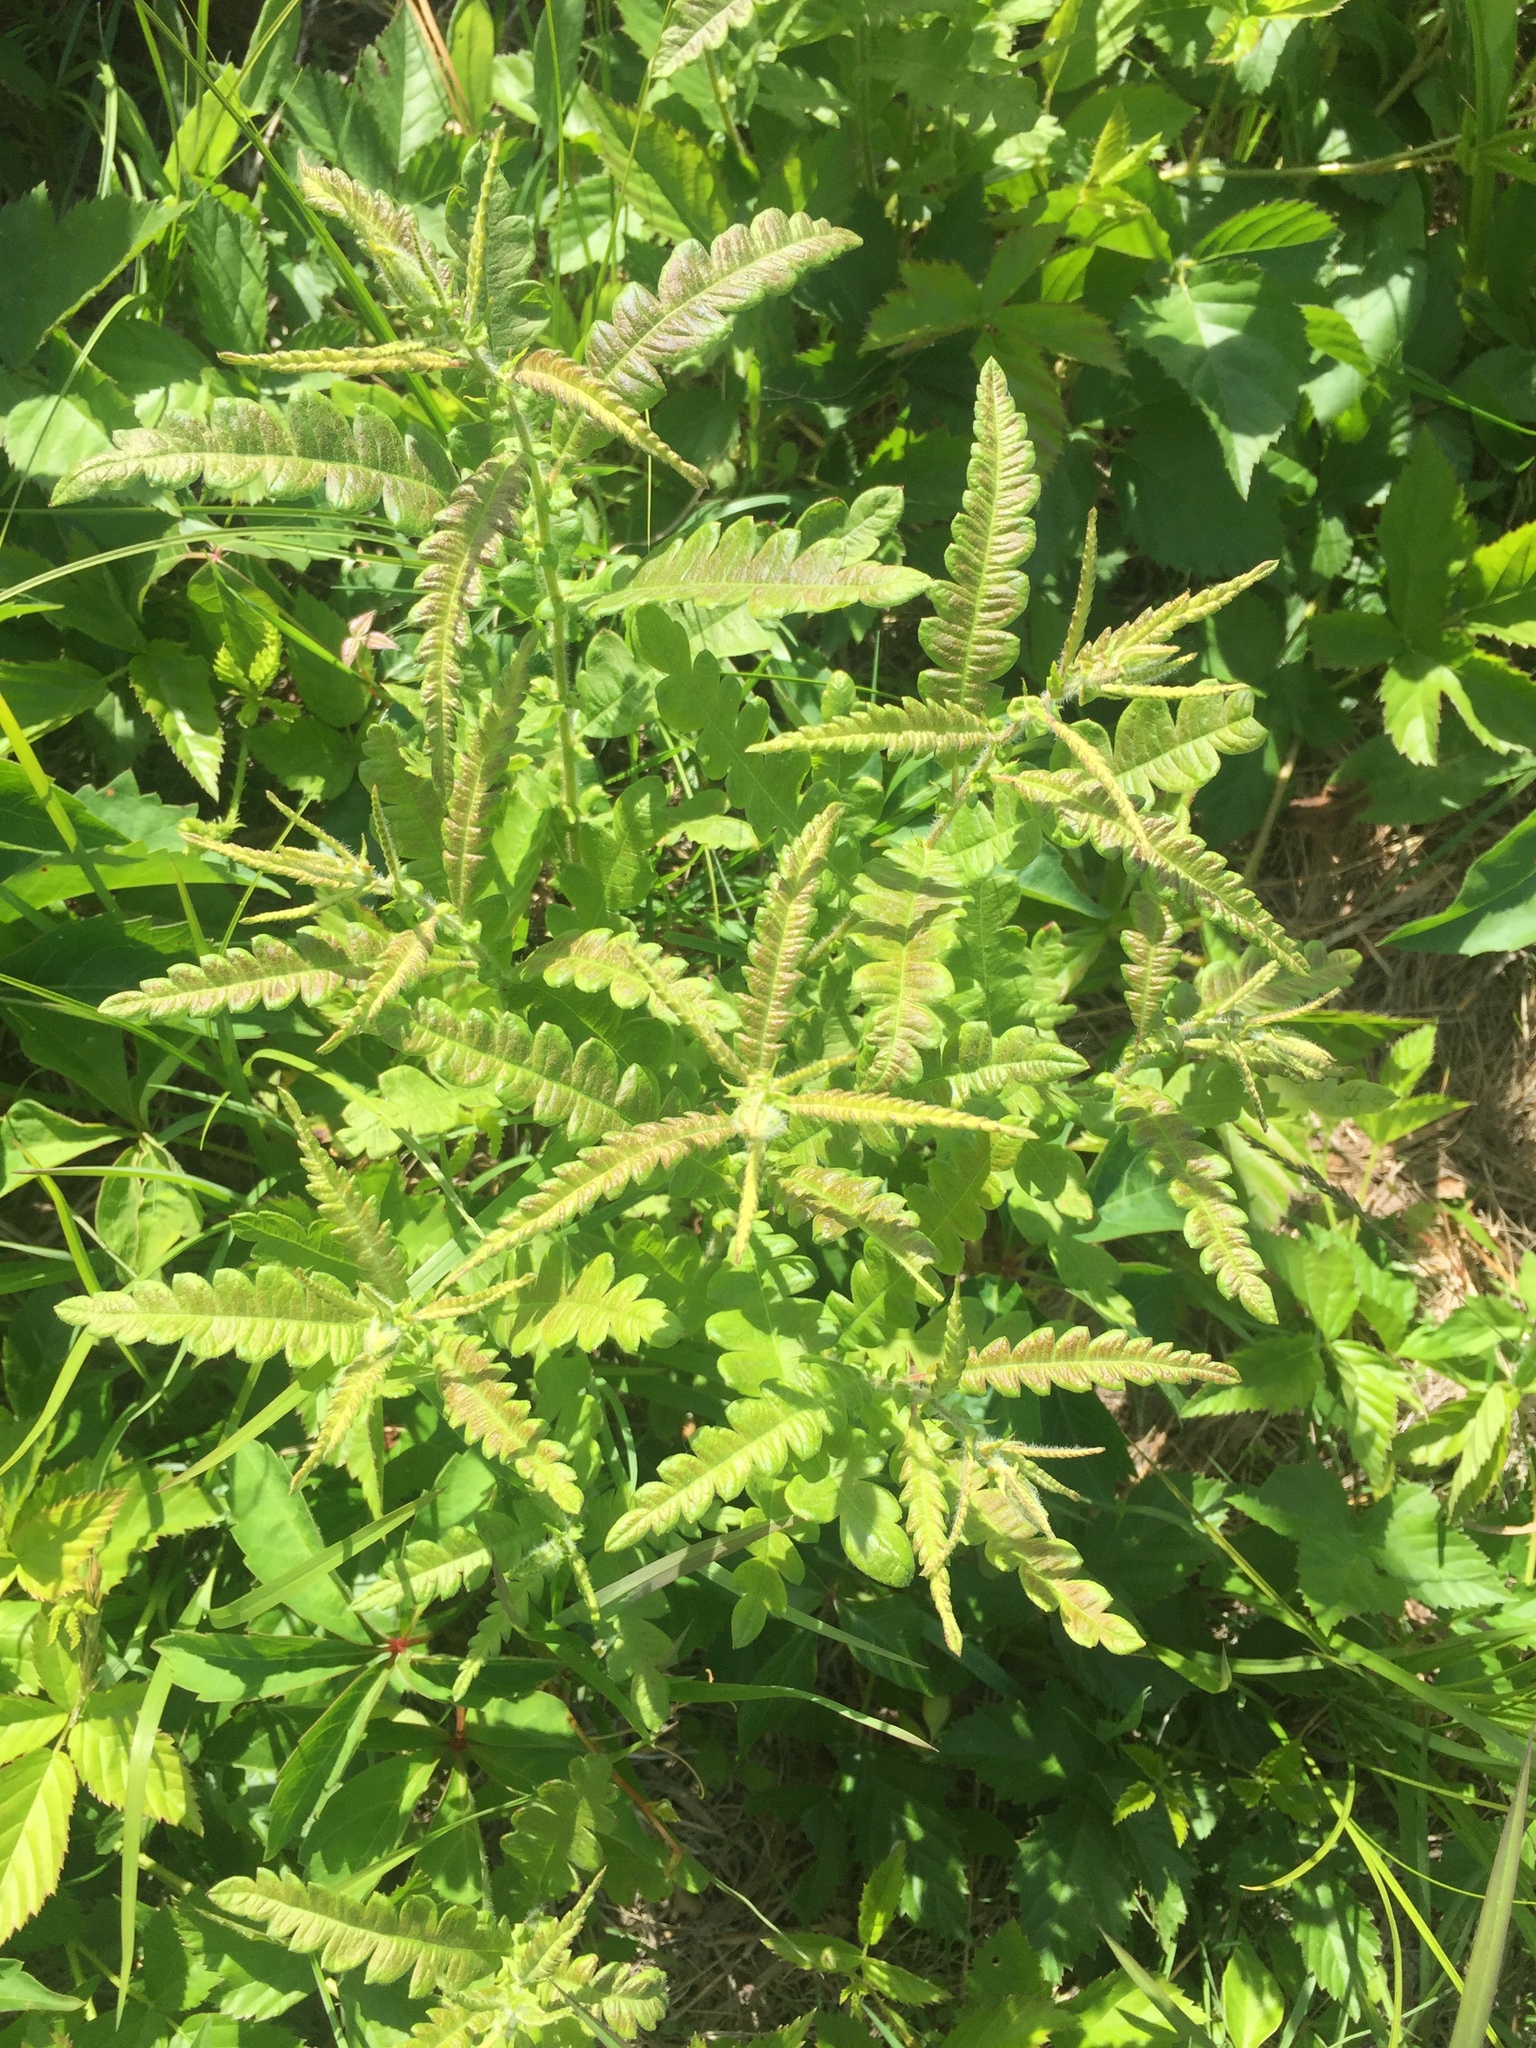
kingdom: Plantae
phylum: Tracheophyta
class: Magnoliopsida
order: Fagales
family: Myricaceae
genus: Comptonia
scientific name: Comptonia peregrina
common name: Sweet-fern
